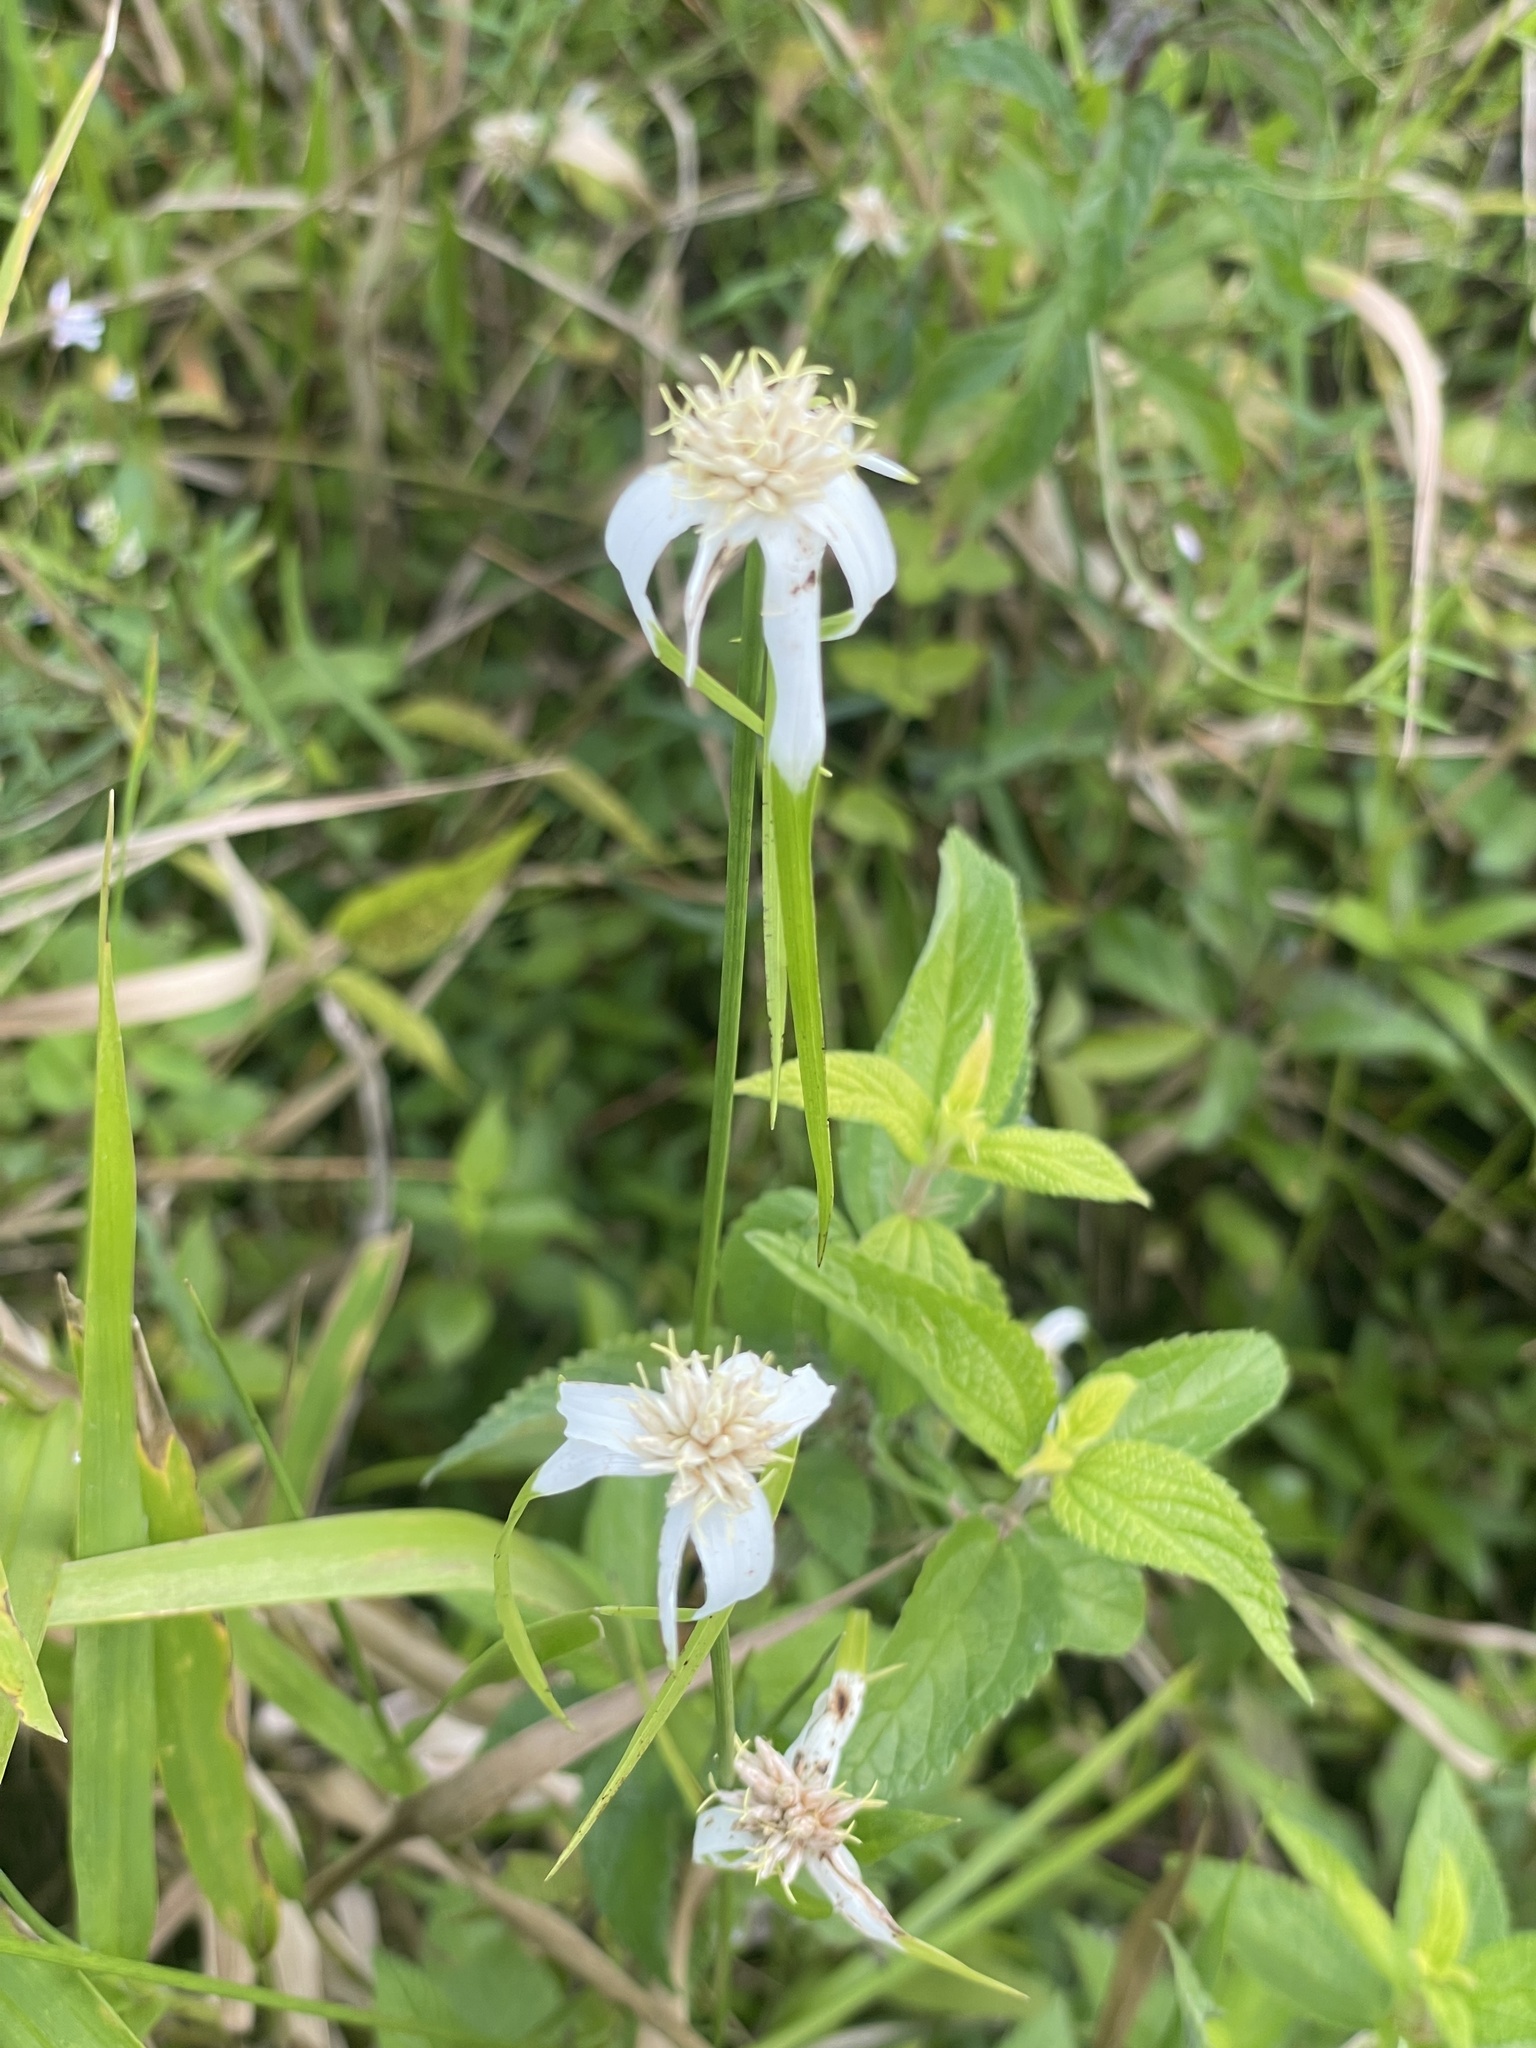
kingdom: Plantae
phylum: Tracheophyta
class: Liliopsida
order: Poales
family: Cyperaceae
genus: Rhynchospora
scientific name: Rhynchospora colorata
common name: Star sedge
